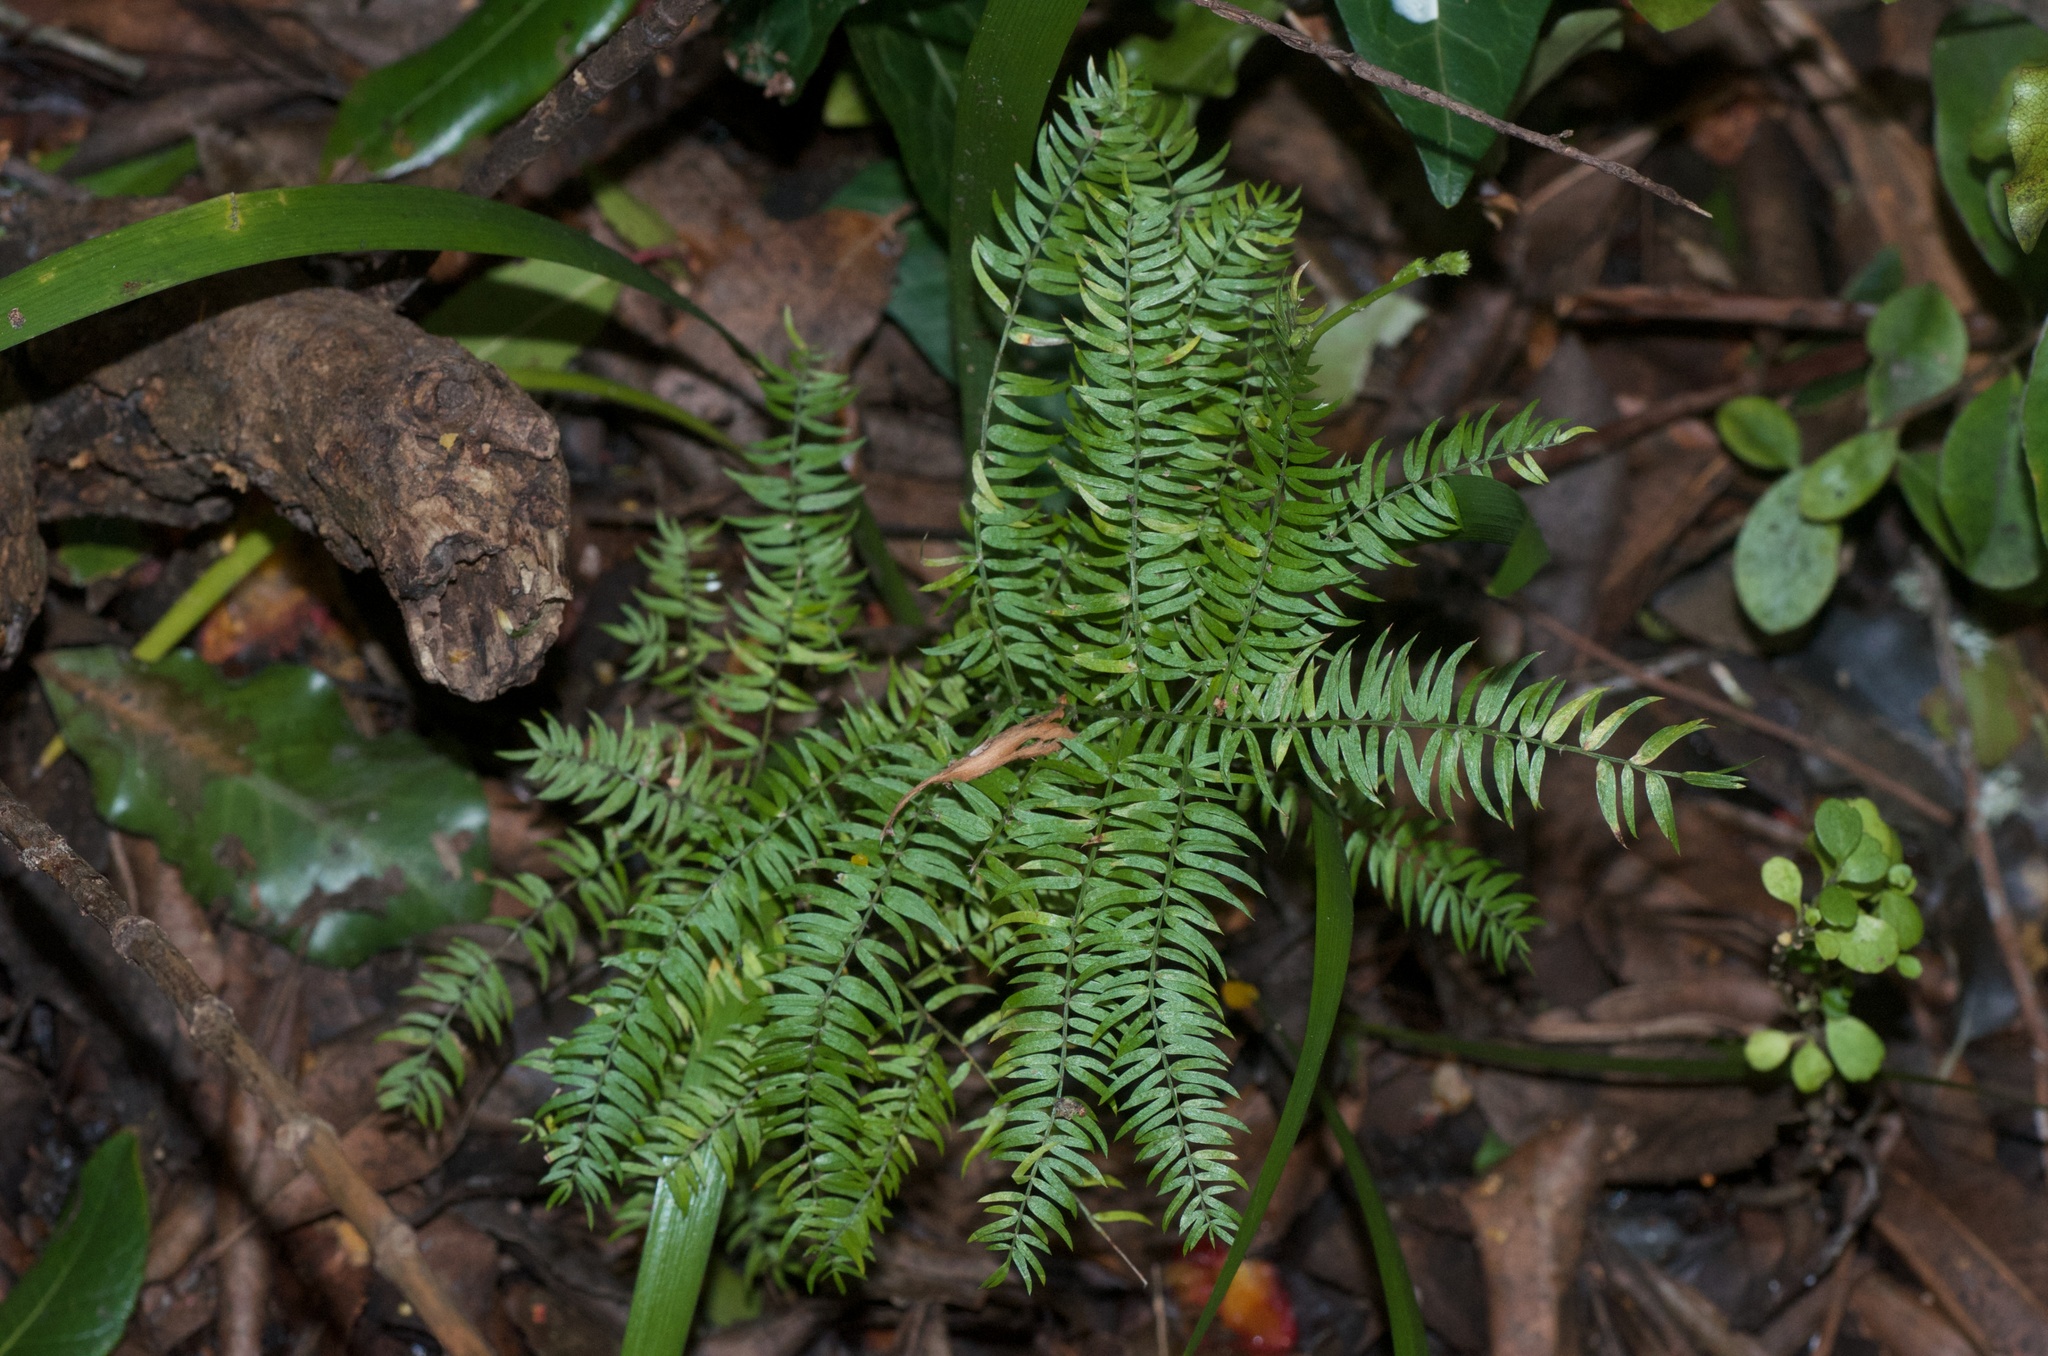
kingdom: Plantae
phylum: Tracheophyta
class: Liliopsida
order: Asparagales
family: Asparagaceae
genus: Asparagus
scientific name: Asparagus scandens
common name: Asparagus-fern
